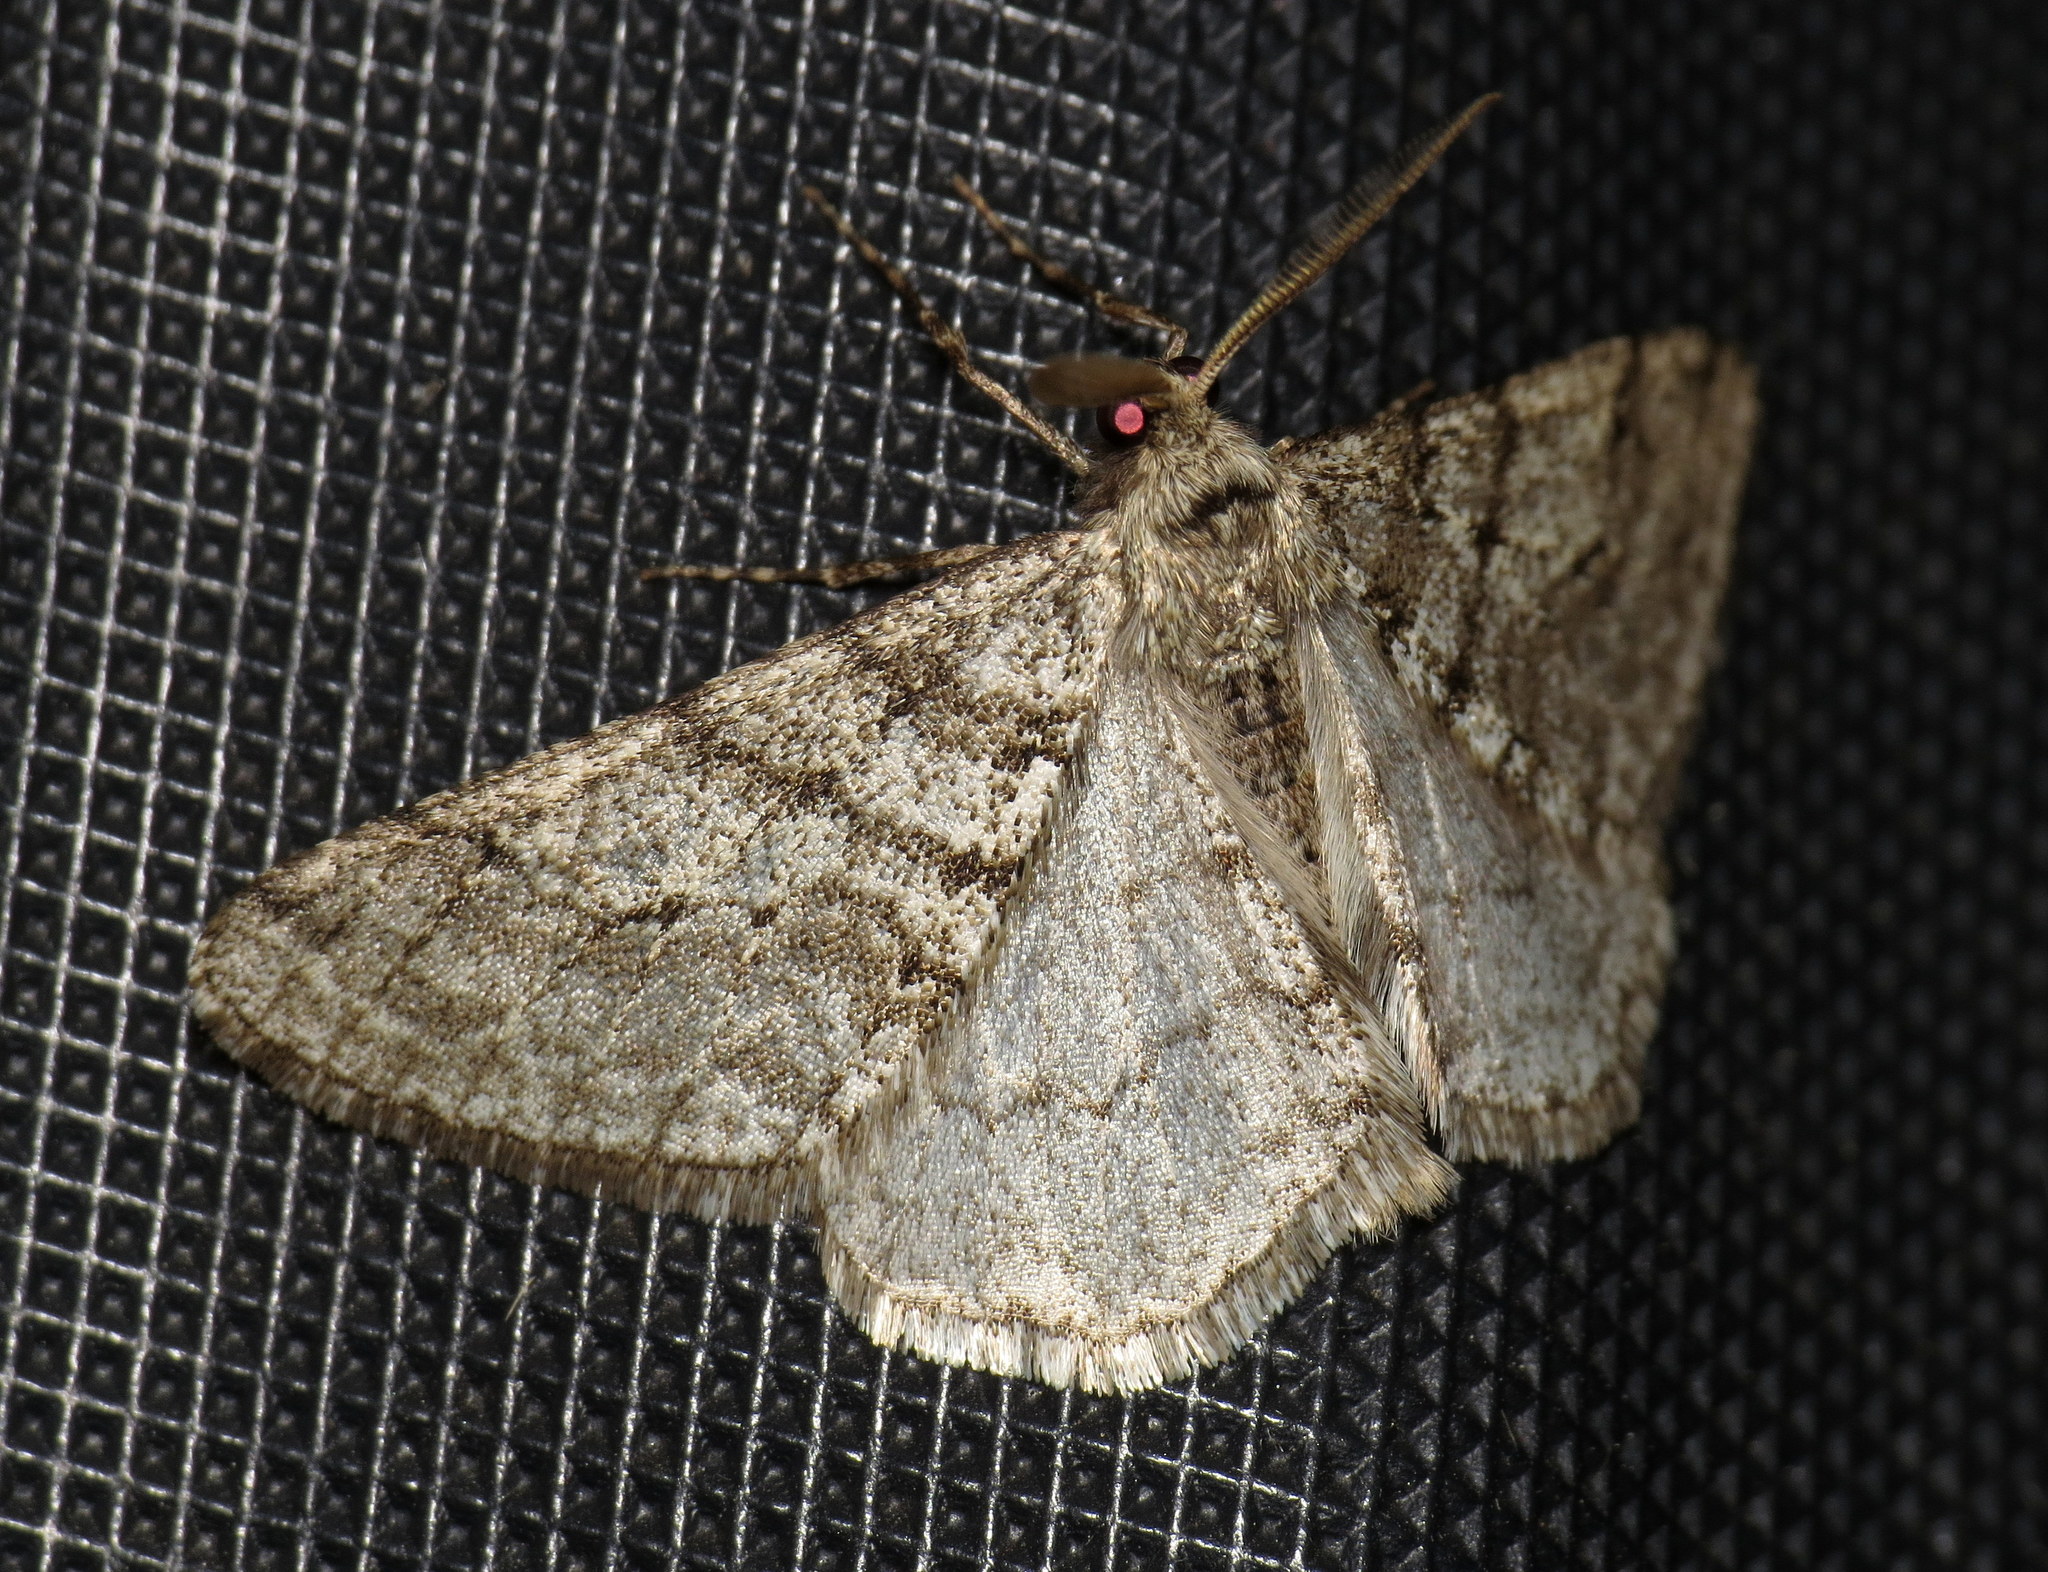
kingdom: Animalia
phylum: Arthropoda
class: Insecta
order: Lepidoptera
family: Geometridae
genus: Phigalia
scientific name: Phigalia titea
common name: Spiny looper
